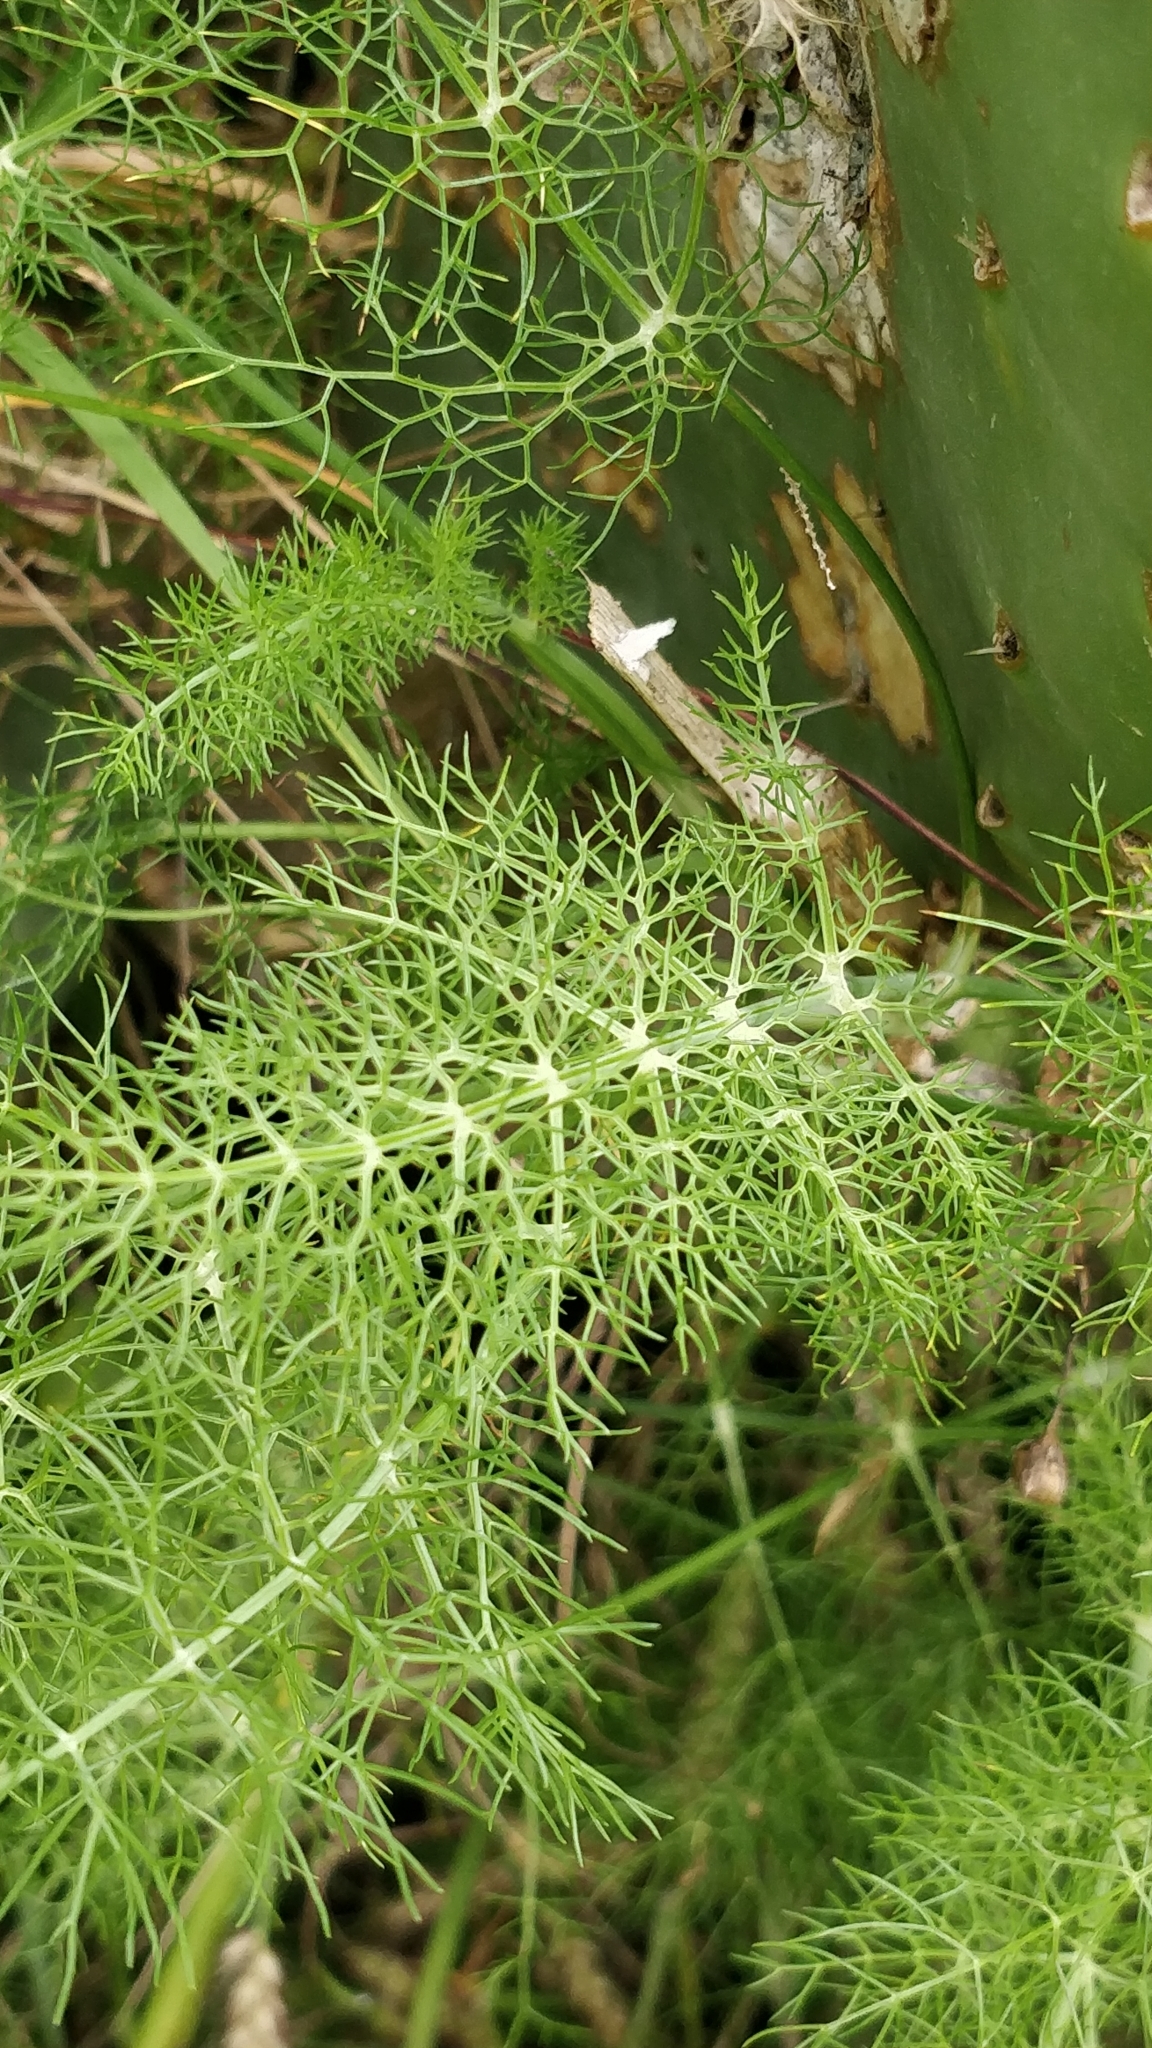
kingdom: Plantae
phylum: Tracheophyta
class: Magnoliopsida
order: Apiales
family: Apiaceae
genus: Foeniculum
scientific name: Foeniculum vulgare
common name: Fennel
